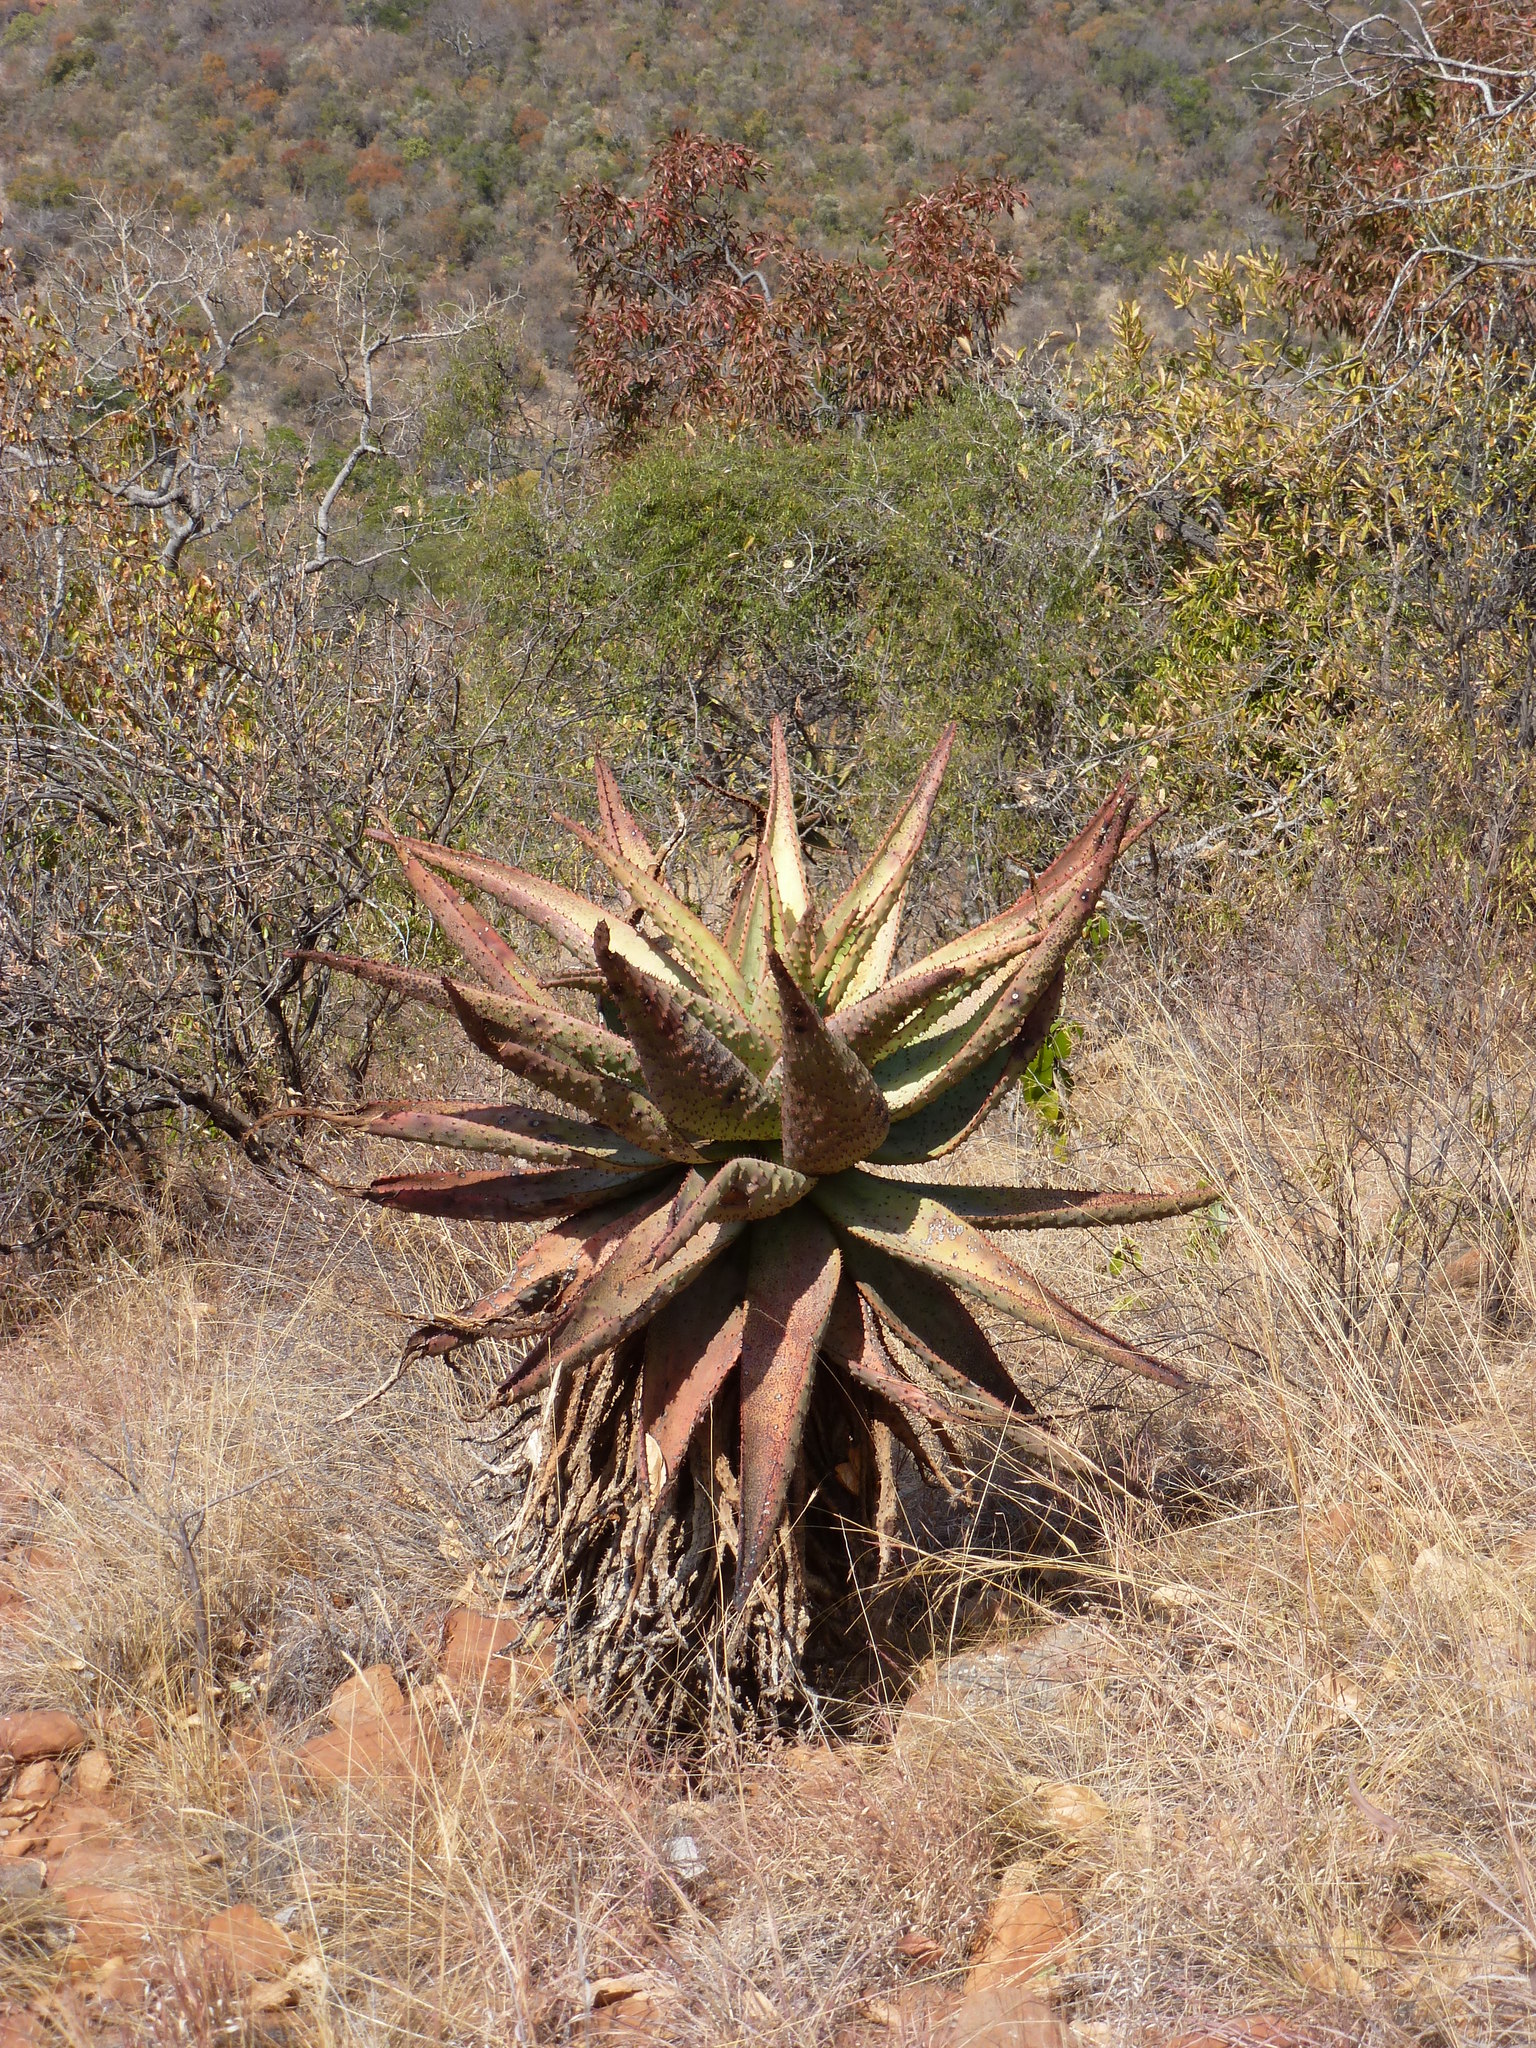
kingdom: Plantae
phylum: Tracheophyta
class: Liliopsida
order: Asparagales
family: Asphodelaceae
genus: Aloe
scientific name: Aloe marlothii
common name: Flat-flowered aloe
